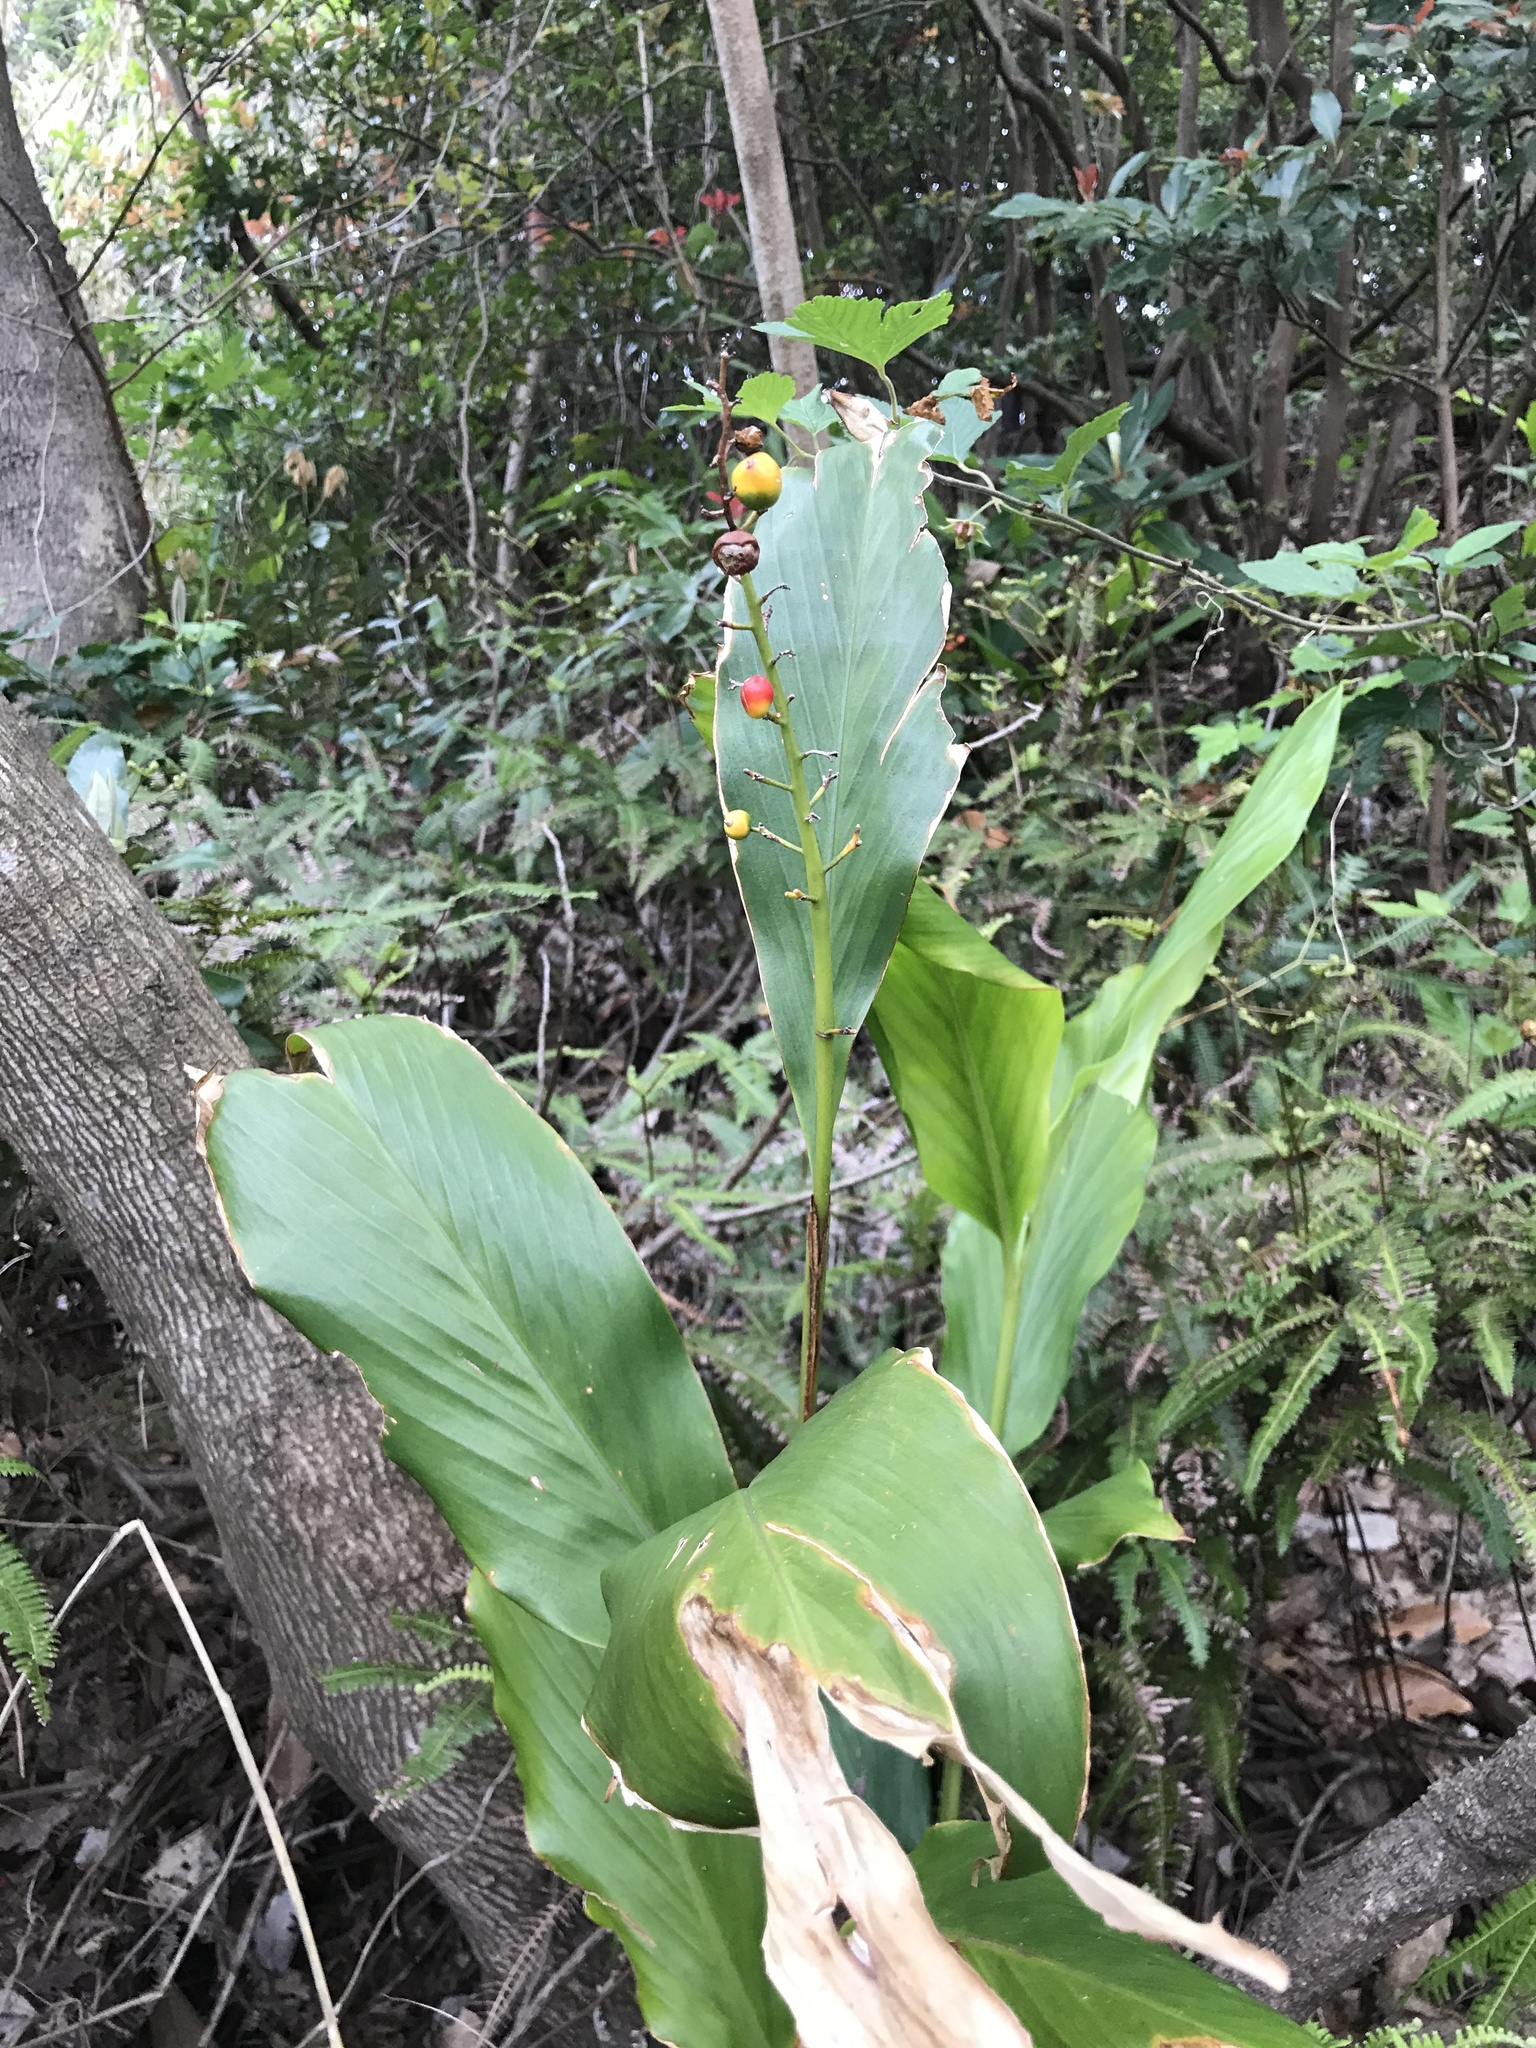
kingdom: Plantae
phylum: Tracheophyta
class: Liliopsida
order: Zingiberales
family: Zingiberaceae
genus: Alpinia
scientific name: Alpinia intermedia
